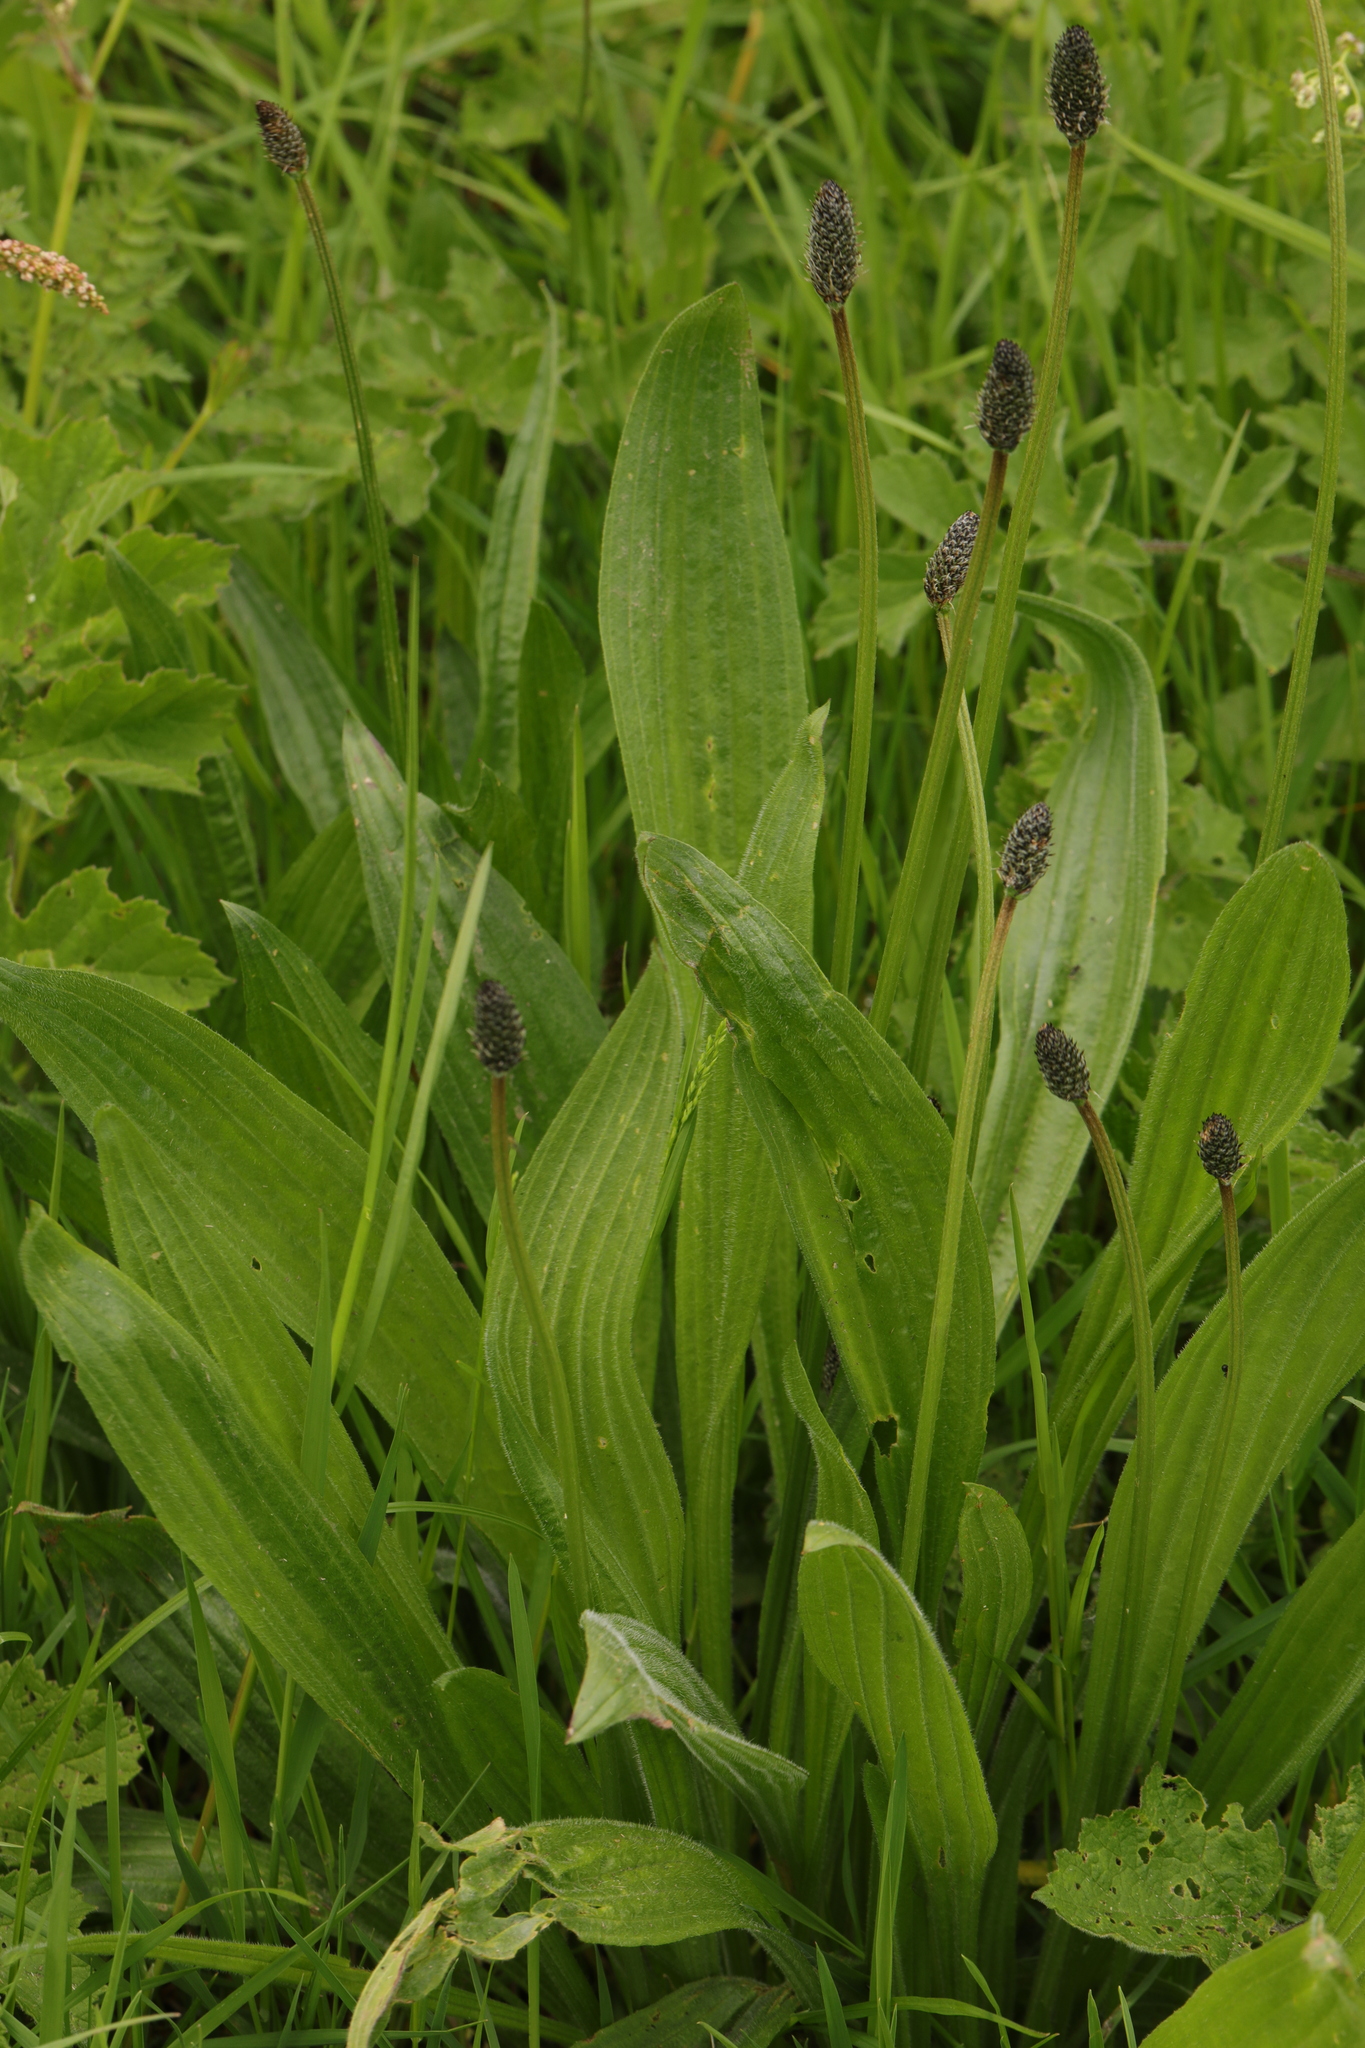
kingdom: Plantae
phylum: Tracheophyta
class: Magnoliopsida
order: Lamiales
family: Plantaginaceae
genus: Plantago
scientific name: Plantago lanceolata
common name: Ribwort plantain
